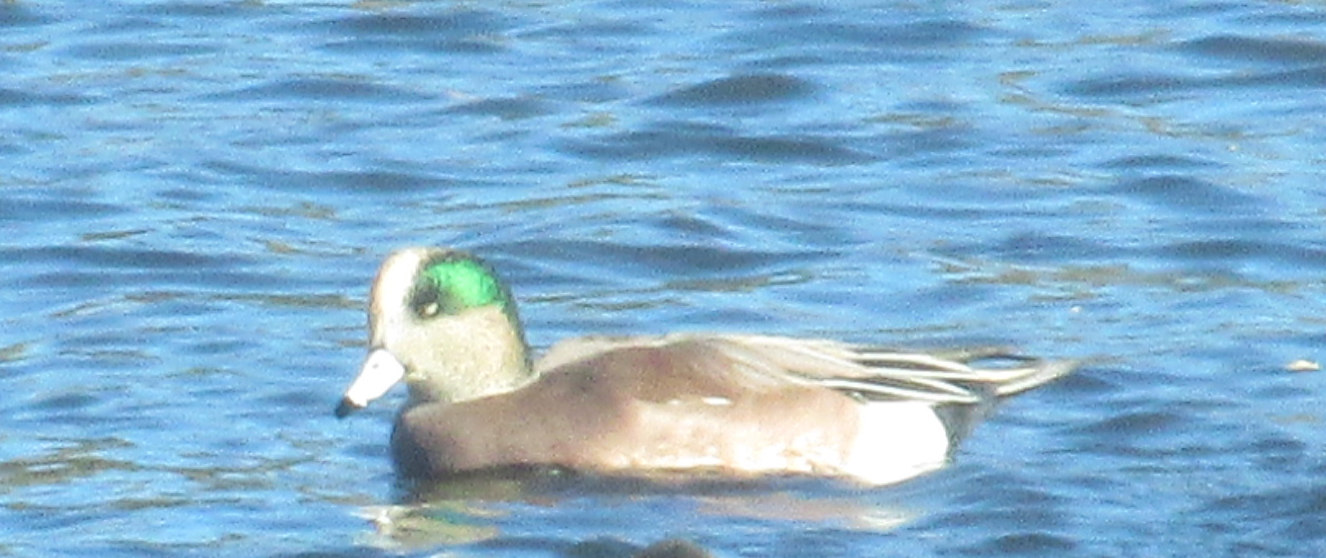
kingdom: Animalia
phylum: Chordata
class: Aves
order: Anseriformes
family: Anatidae
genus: Mareca
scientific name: Mareca americana
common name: American wigeon
